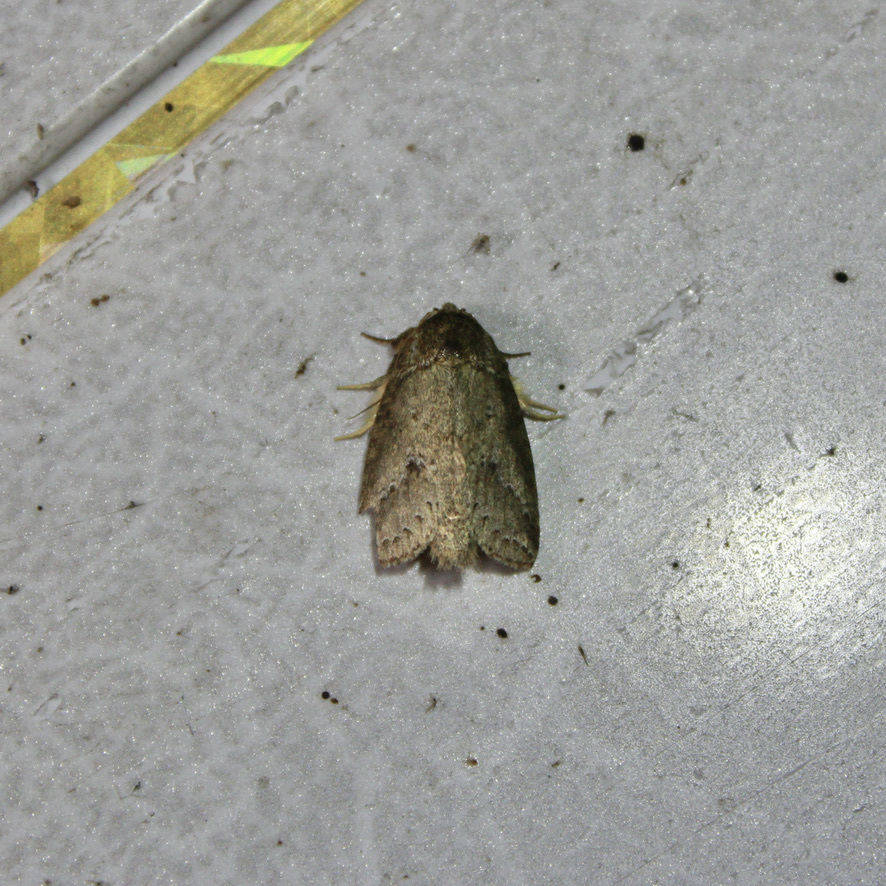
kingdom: Animalia
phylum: Arthropoda
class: Insecta
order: Lepidoptera
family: Notodontidae
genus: Phastia
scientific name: Phastia basalis
